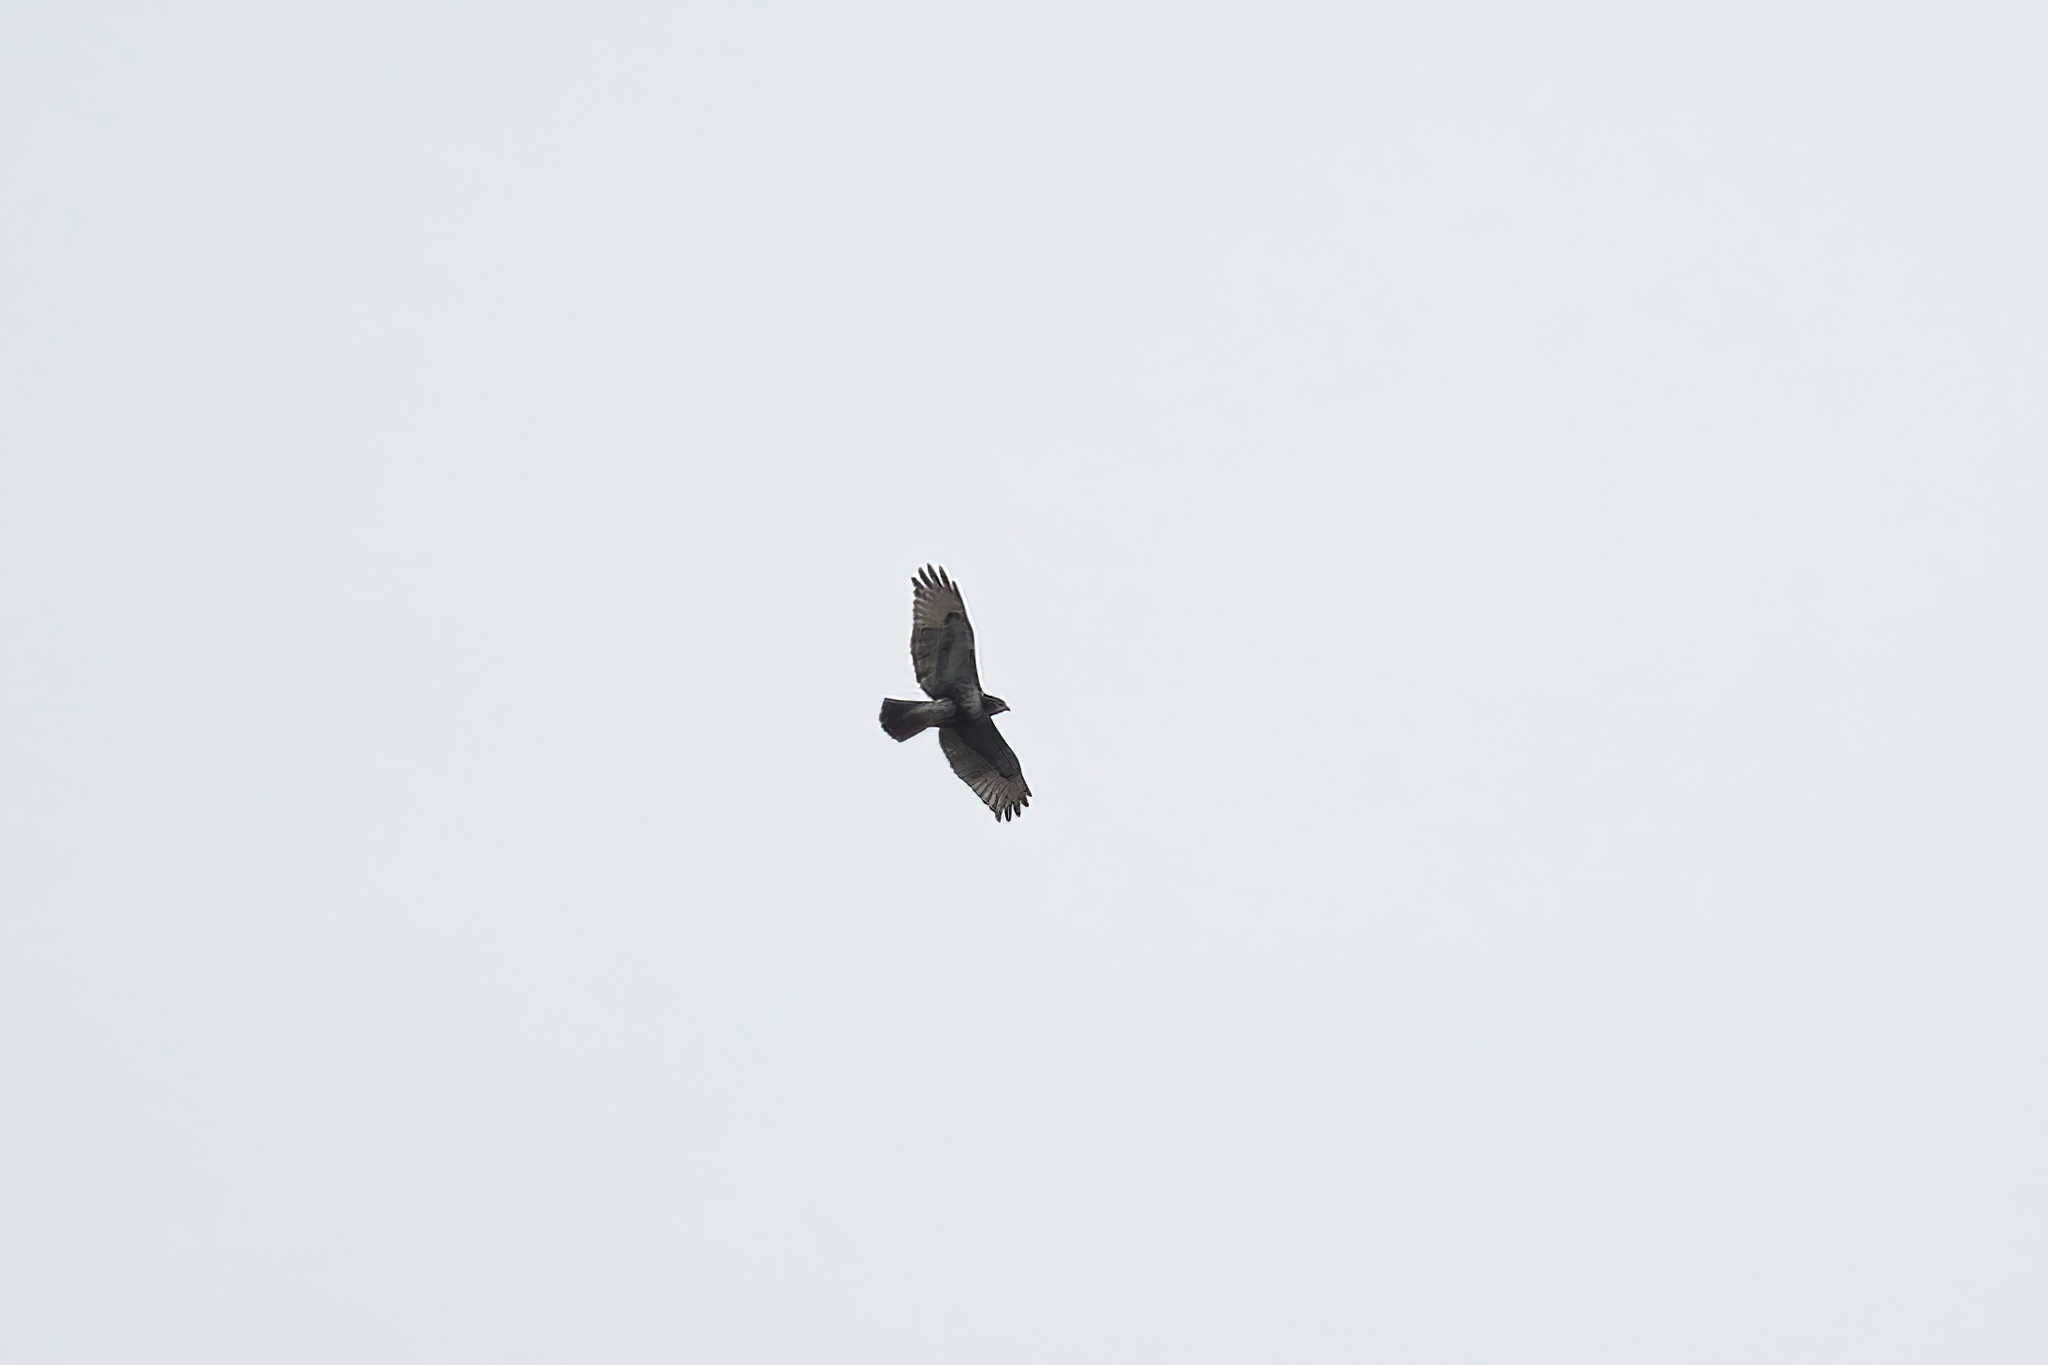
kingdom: Animalia
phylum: Chordata
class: Aves
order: Accipitriformes
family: Accipitridae
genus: Buteo
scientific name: Buteo jamaicensis
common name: Red-tailed hawk
